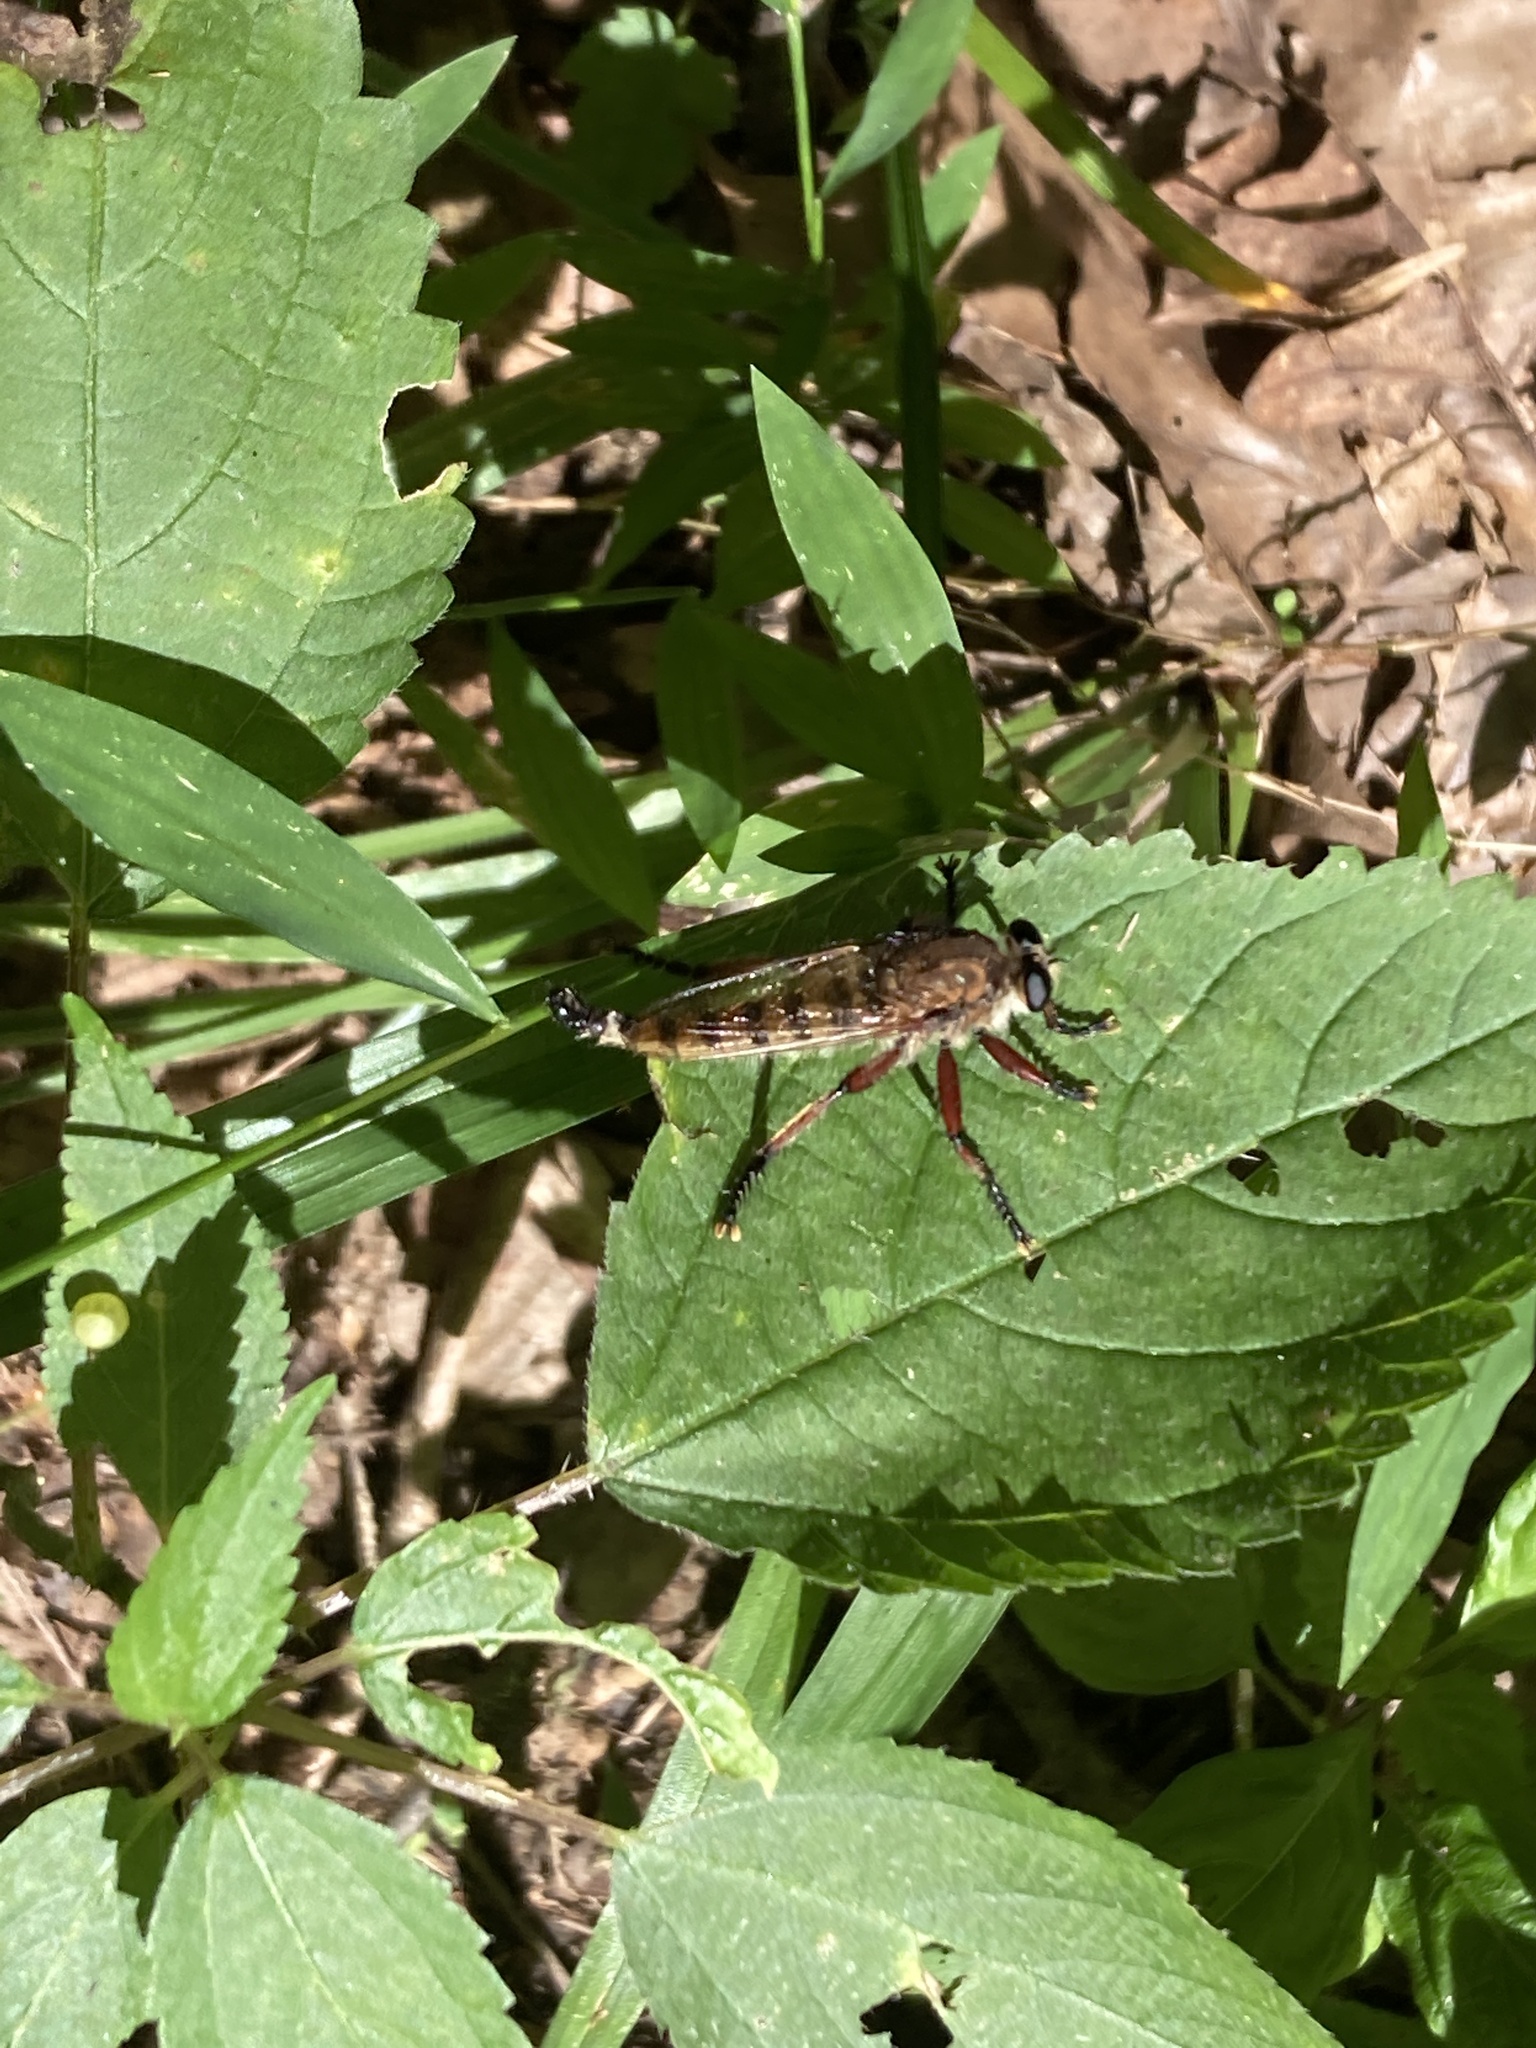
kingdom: Animalia
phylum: Arthropoda
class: Insecta
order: Diptera
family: Asilidae
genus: Promachus
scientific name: Promachus hinei
